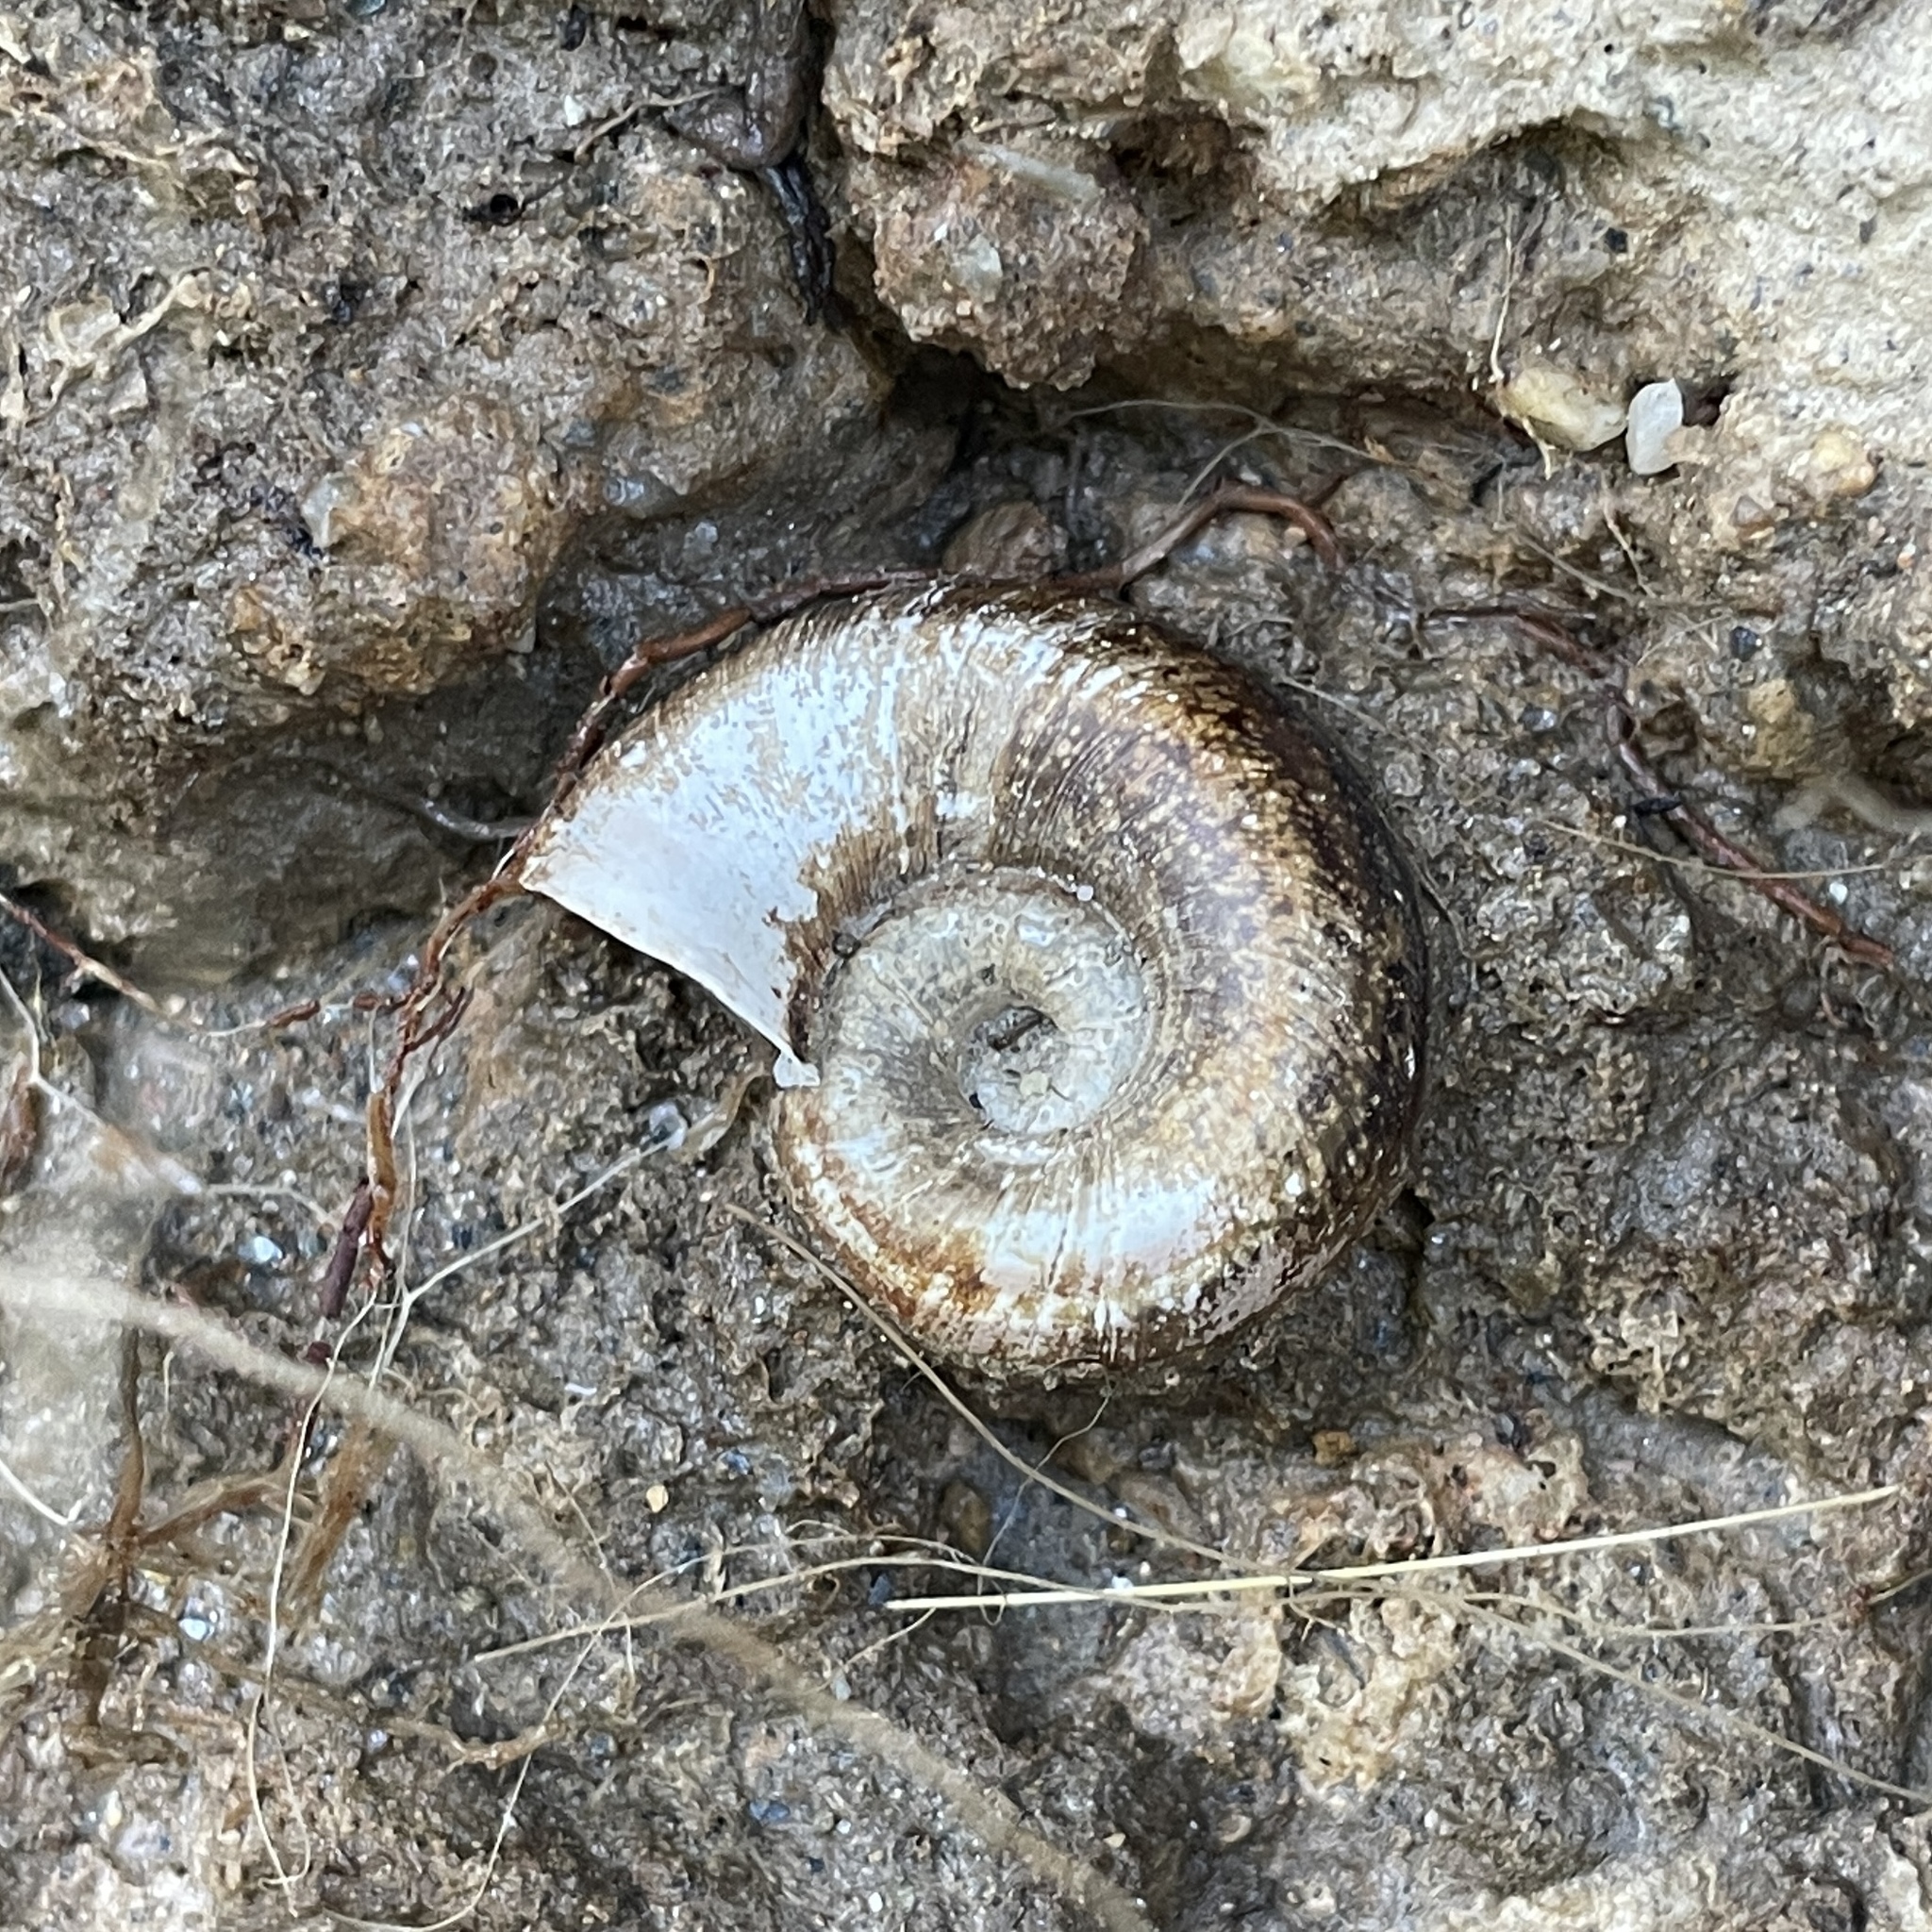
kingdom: Animalia
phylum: Mollusca
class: Gastropoda
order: Architaenioglossa
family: Ampullariidae
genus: Marisa
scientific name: Marisa cornuarietis
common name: Giant ramshorn snail
